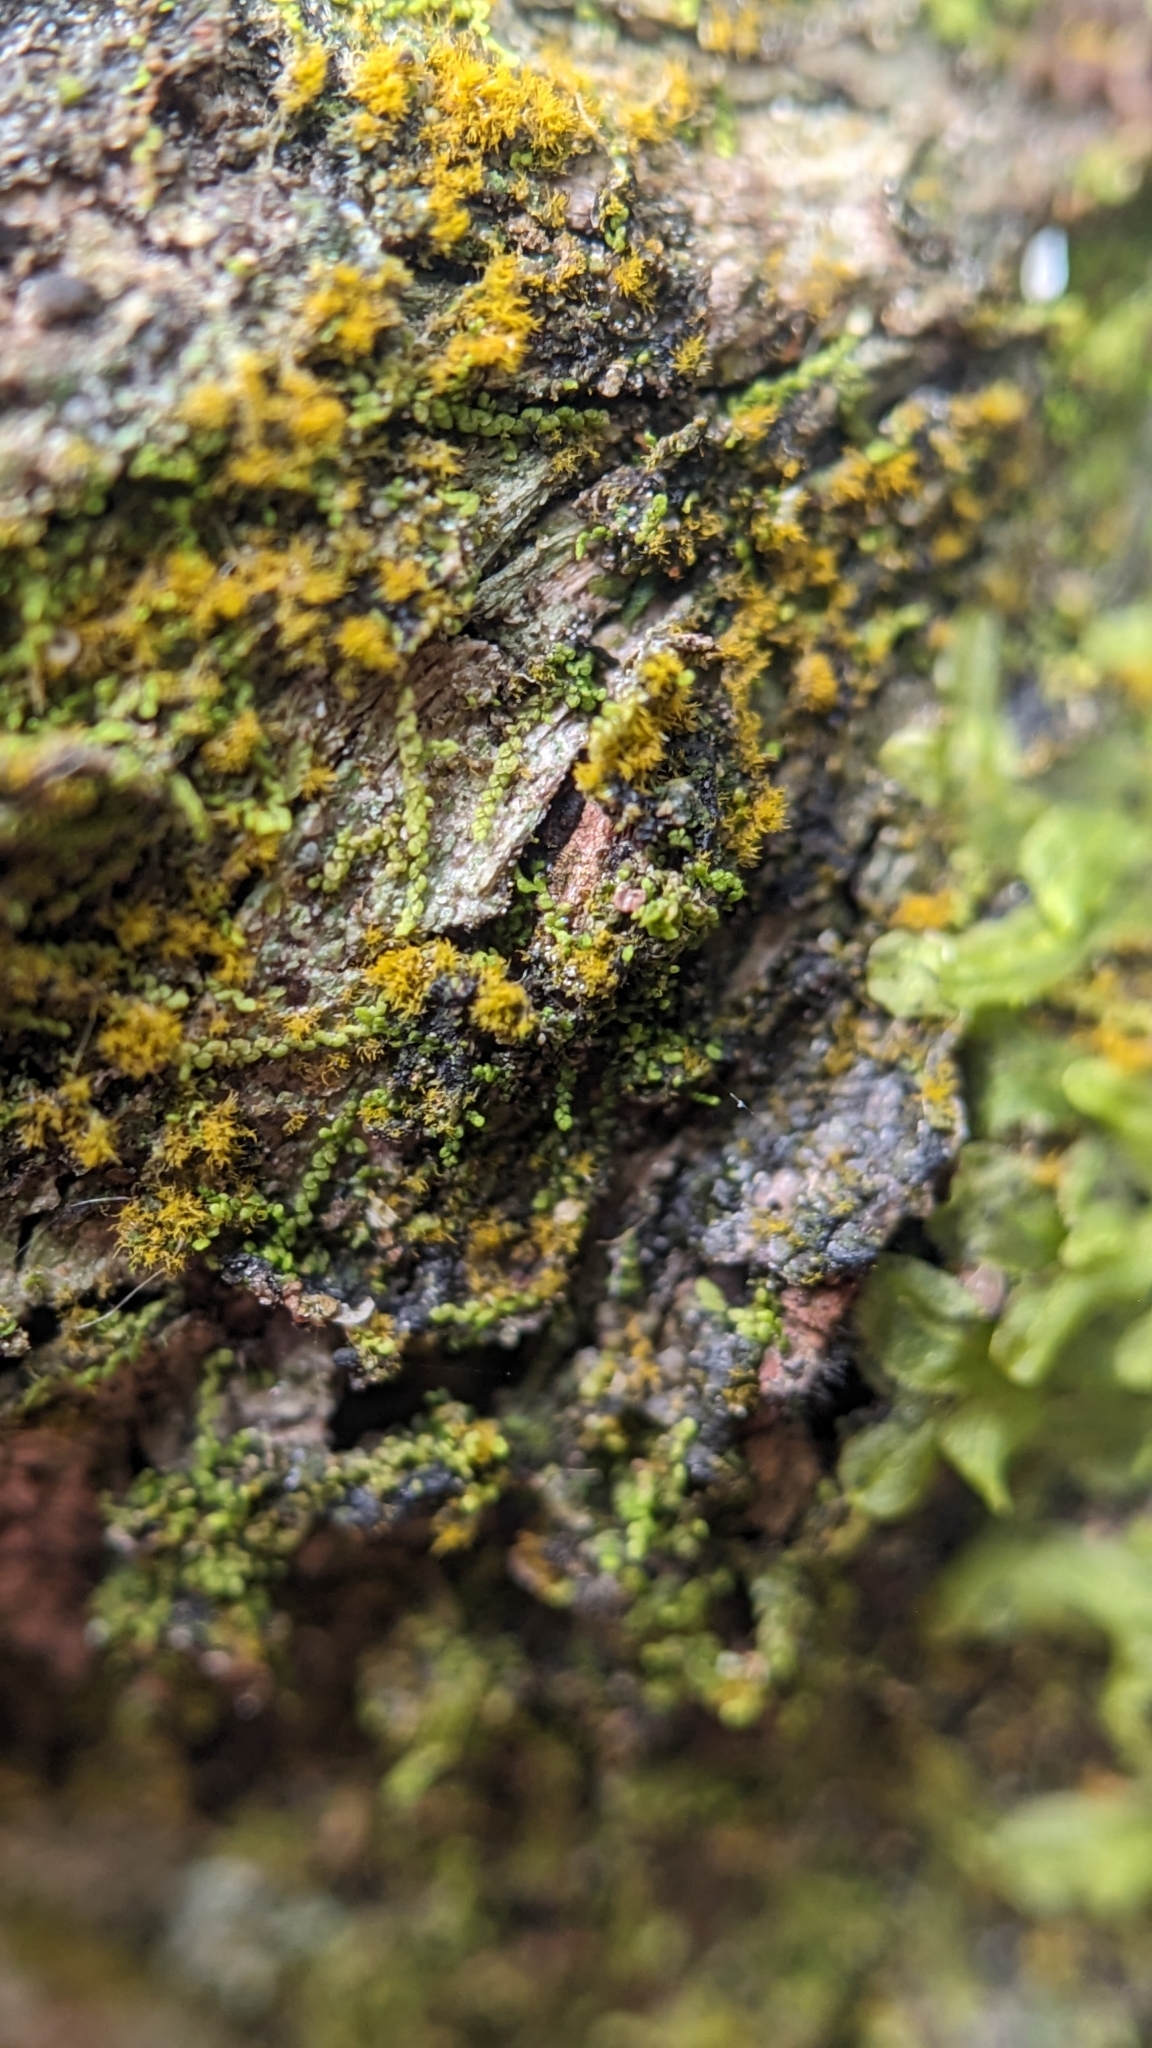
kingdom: Plantae
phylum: Marchantiophyta
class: Jungermanniopsida
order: Porellales
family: Lejeuneaceae
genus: Microlejeunea
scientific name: Microlejeunea ulicina
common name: Fairy beads
